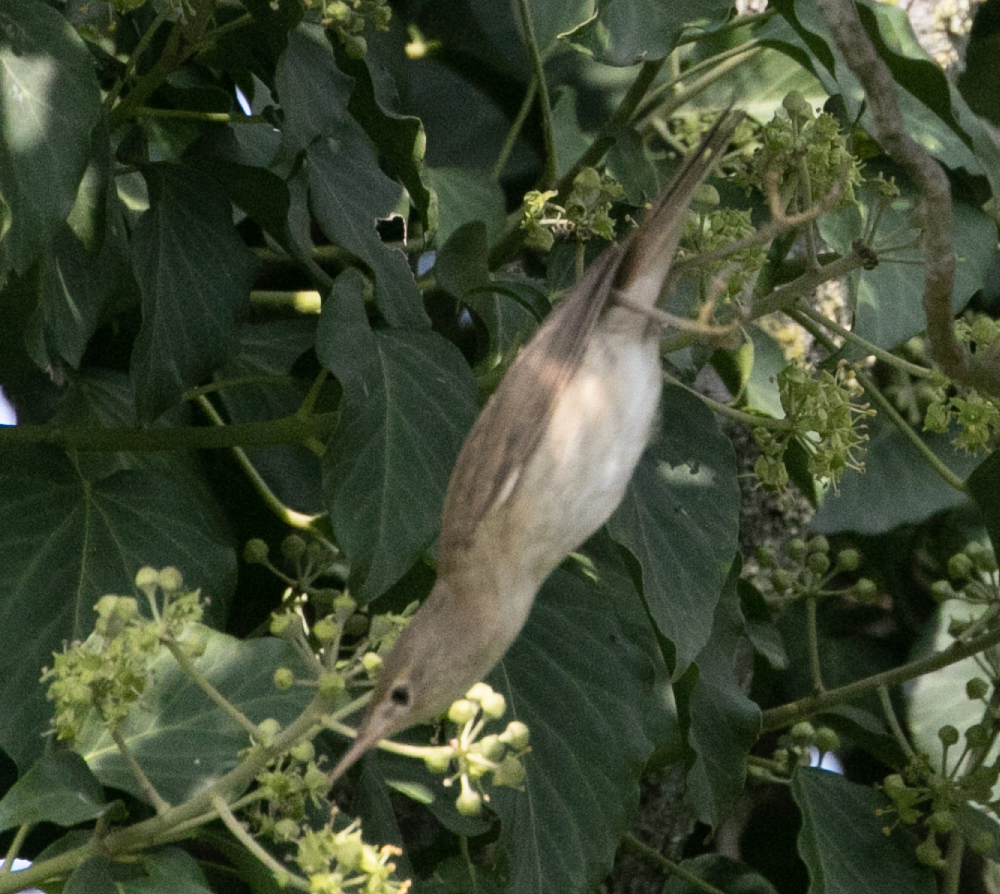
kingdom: Animalia
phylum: Chordata
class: Aves
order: Passeriformes
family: Acrocephalidae
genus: Acrocephalus
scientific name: Acrocephalus scirpaceus
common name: Eurasian reed warbler
